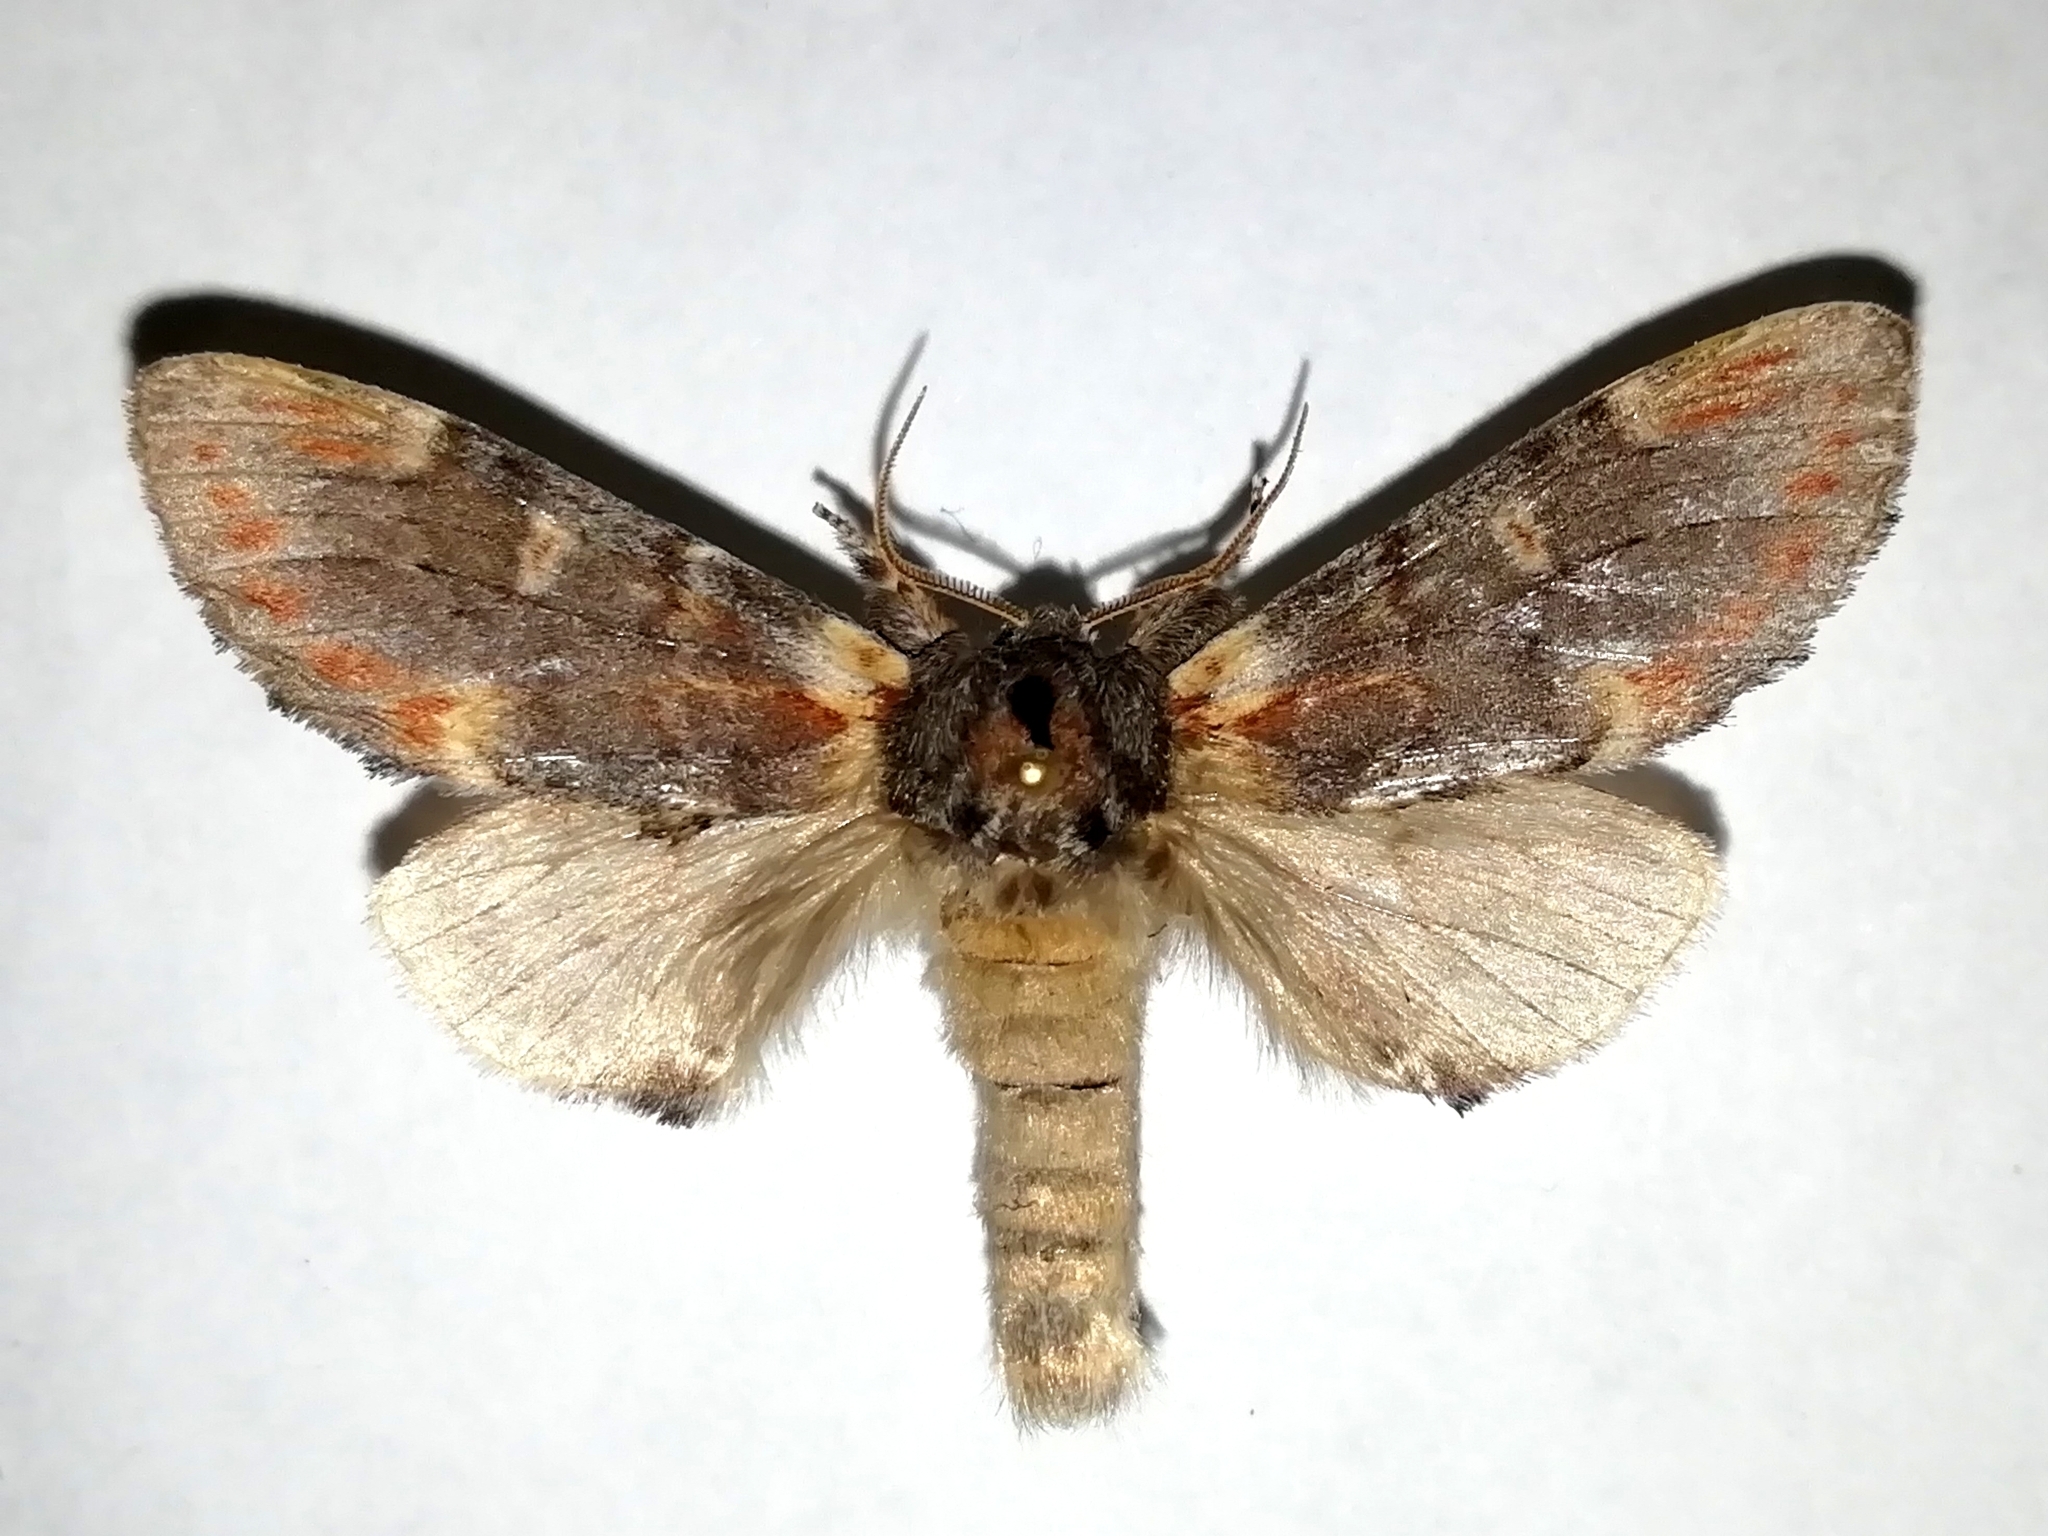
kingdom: Animalia
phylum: Arthropoda
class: Insecta
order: Lepidoptera
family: Notodontidae
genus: Notodonta
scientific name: Notodonta dromedarius
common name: Iron prominent
